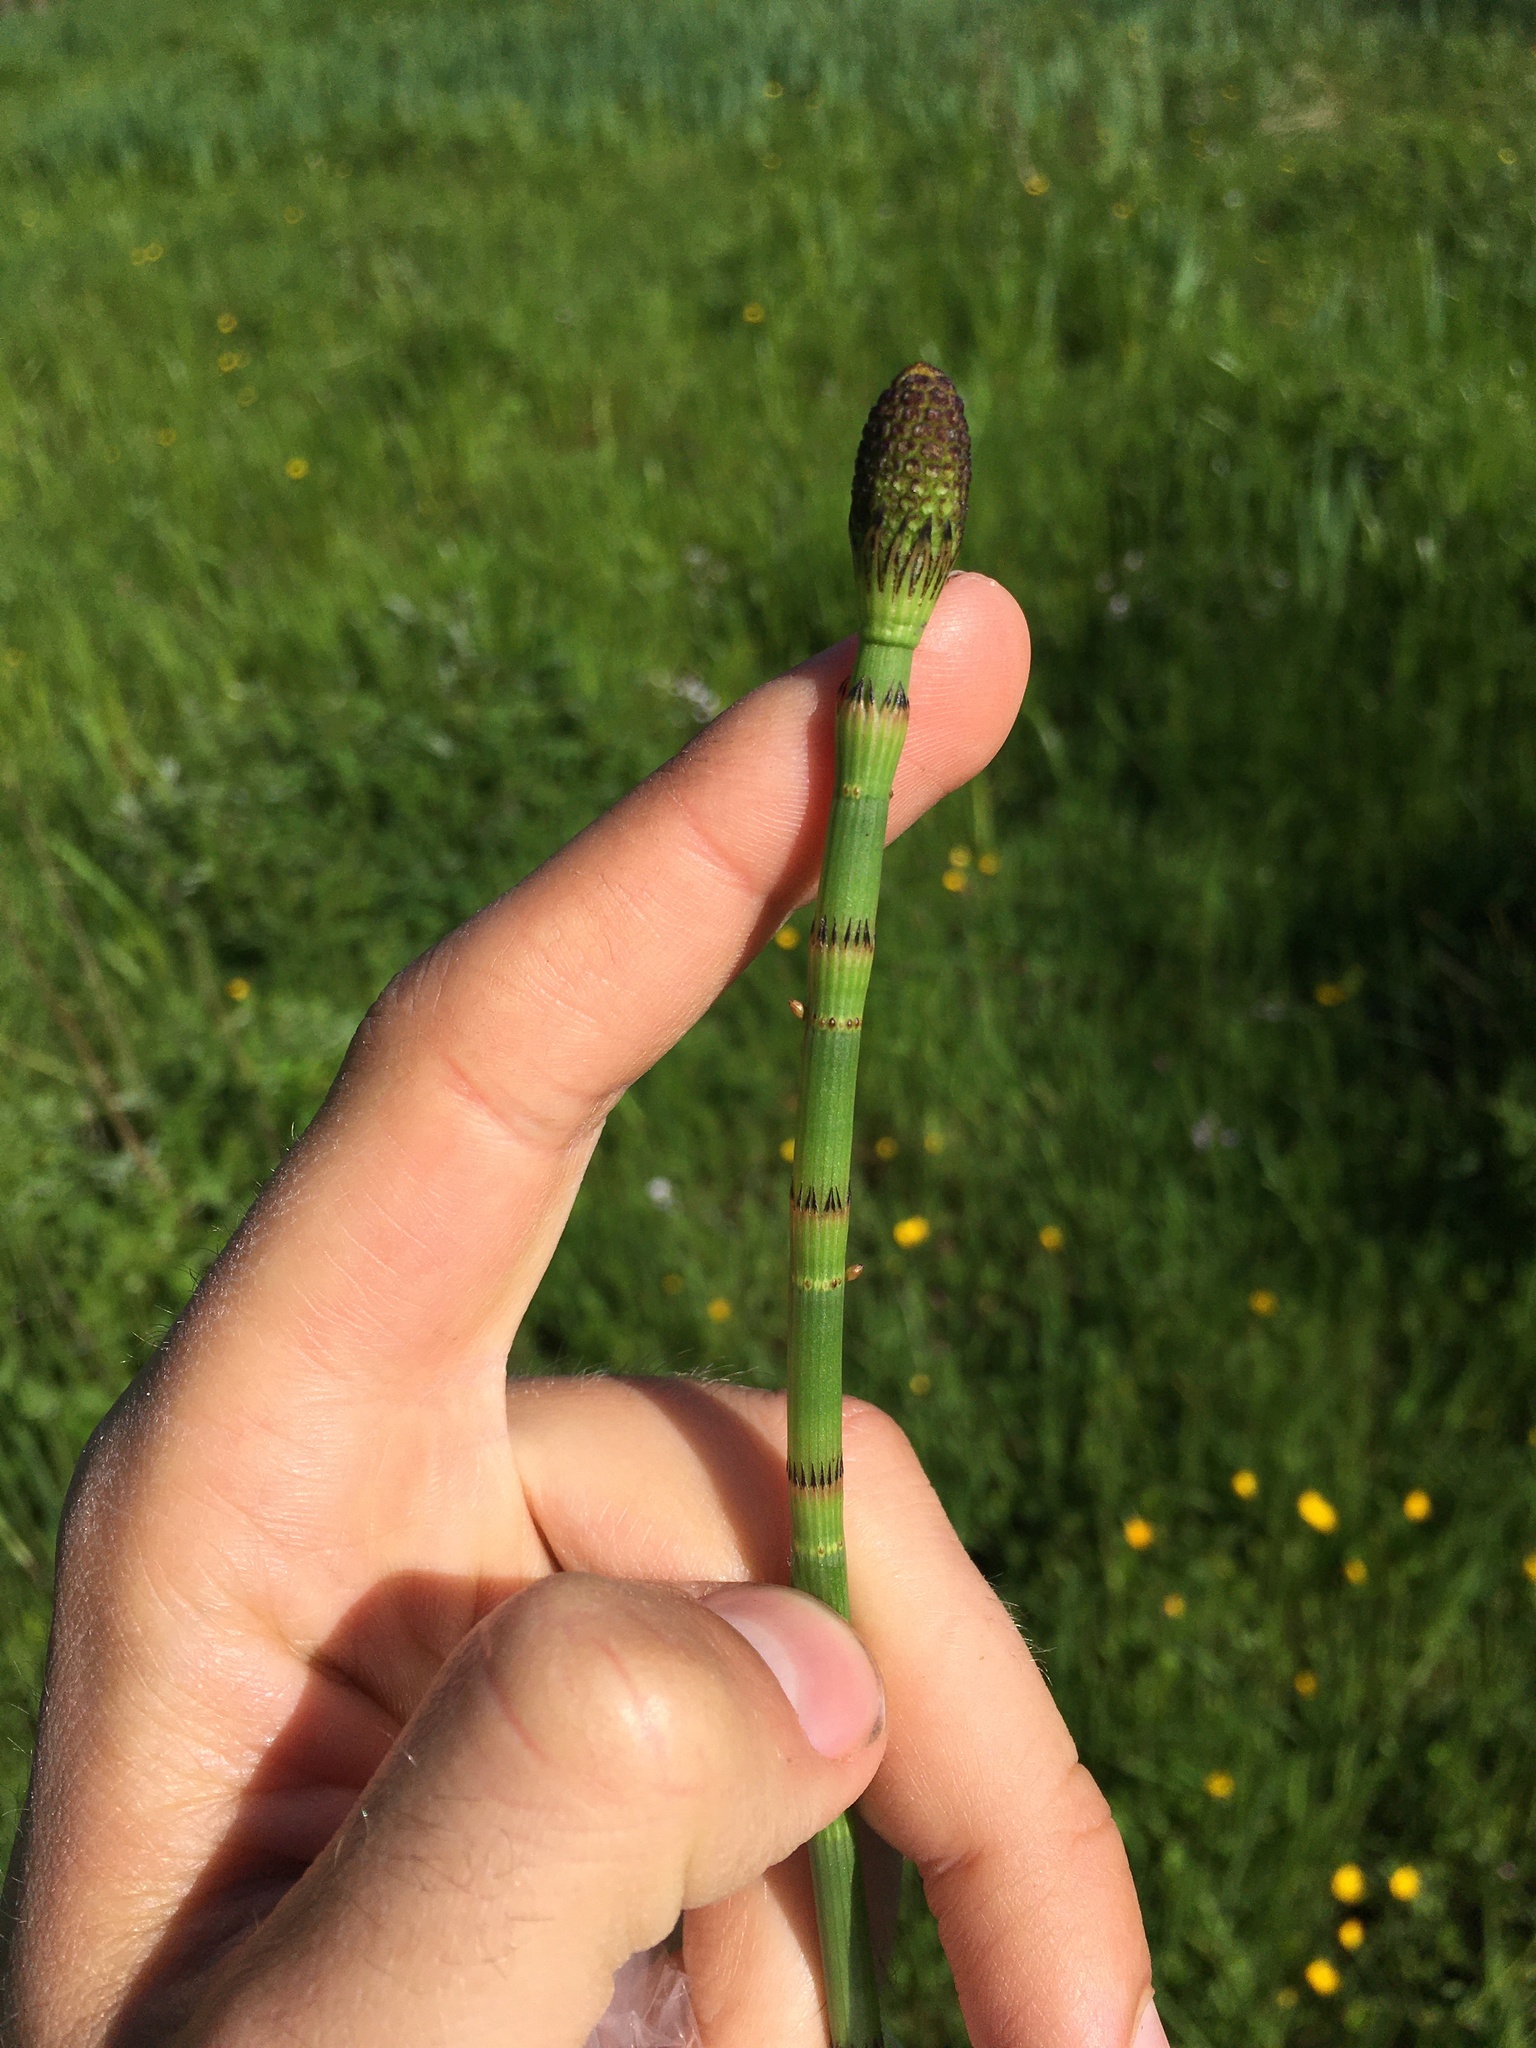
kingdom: Plantae
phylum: Tracheophyta
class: Polypodiopsida
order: Equisetales
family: Equisetaceae
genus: Equisetum
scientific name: Equisetum fluviatile
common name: Water horsetail
